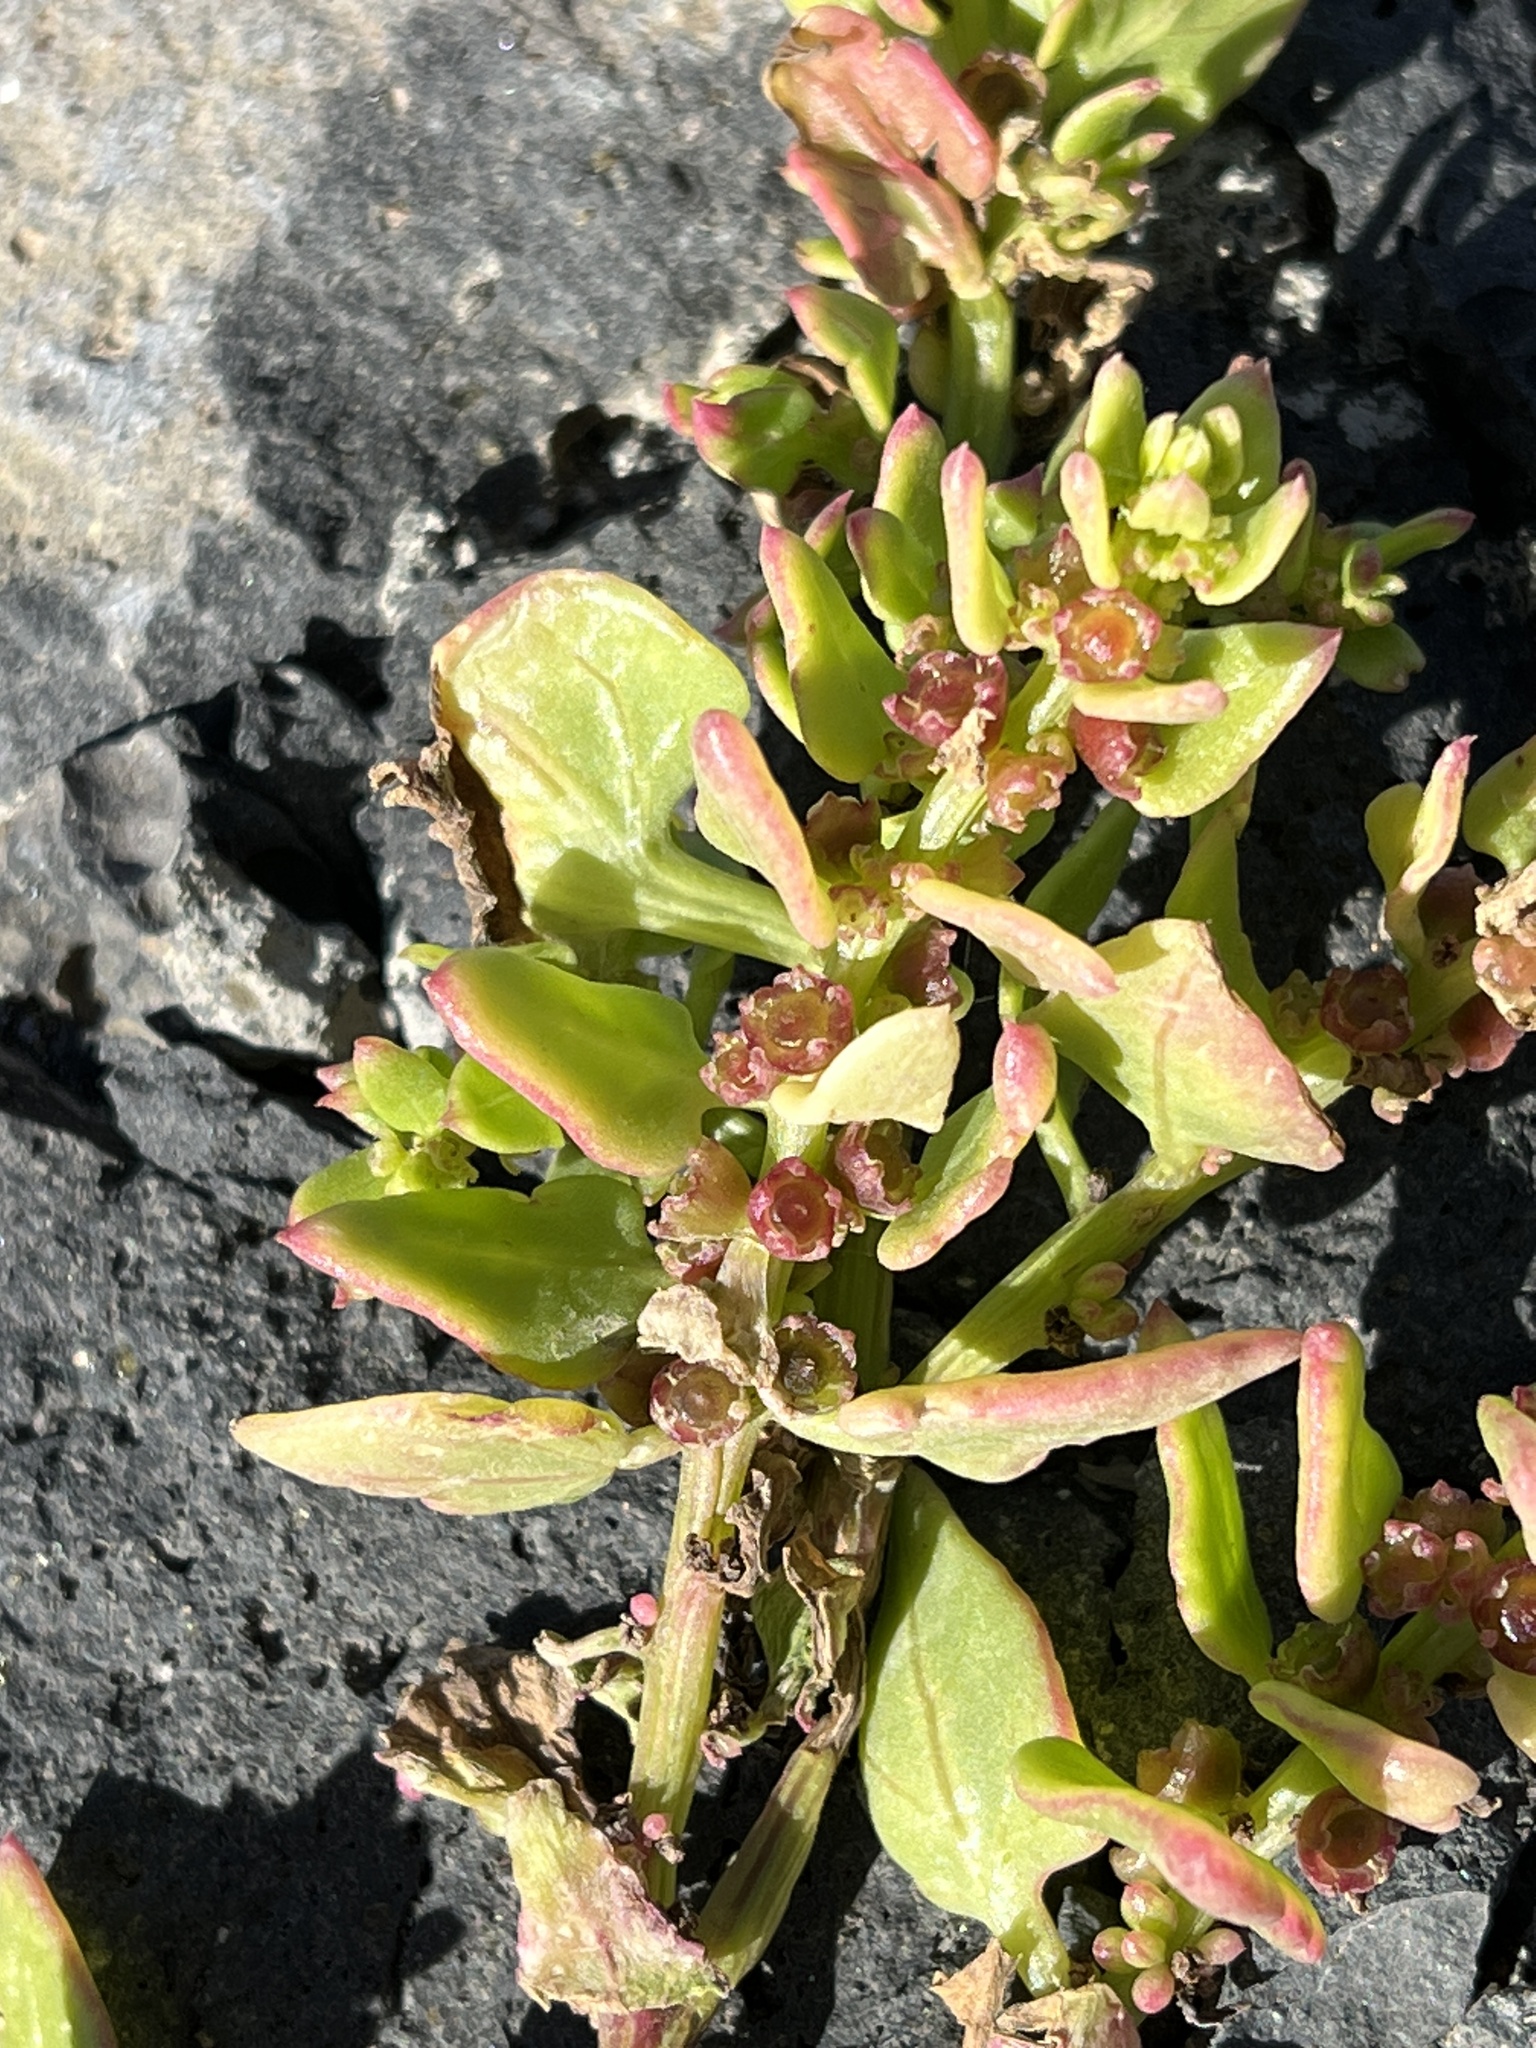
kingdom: Plantae
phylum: Tracheophyta
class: Magnoliopsida
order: Caryophyllales
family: Amaranthaceae
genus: Patellifolia
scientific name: Patellifolia procumbens
